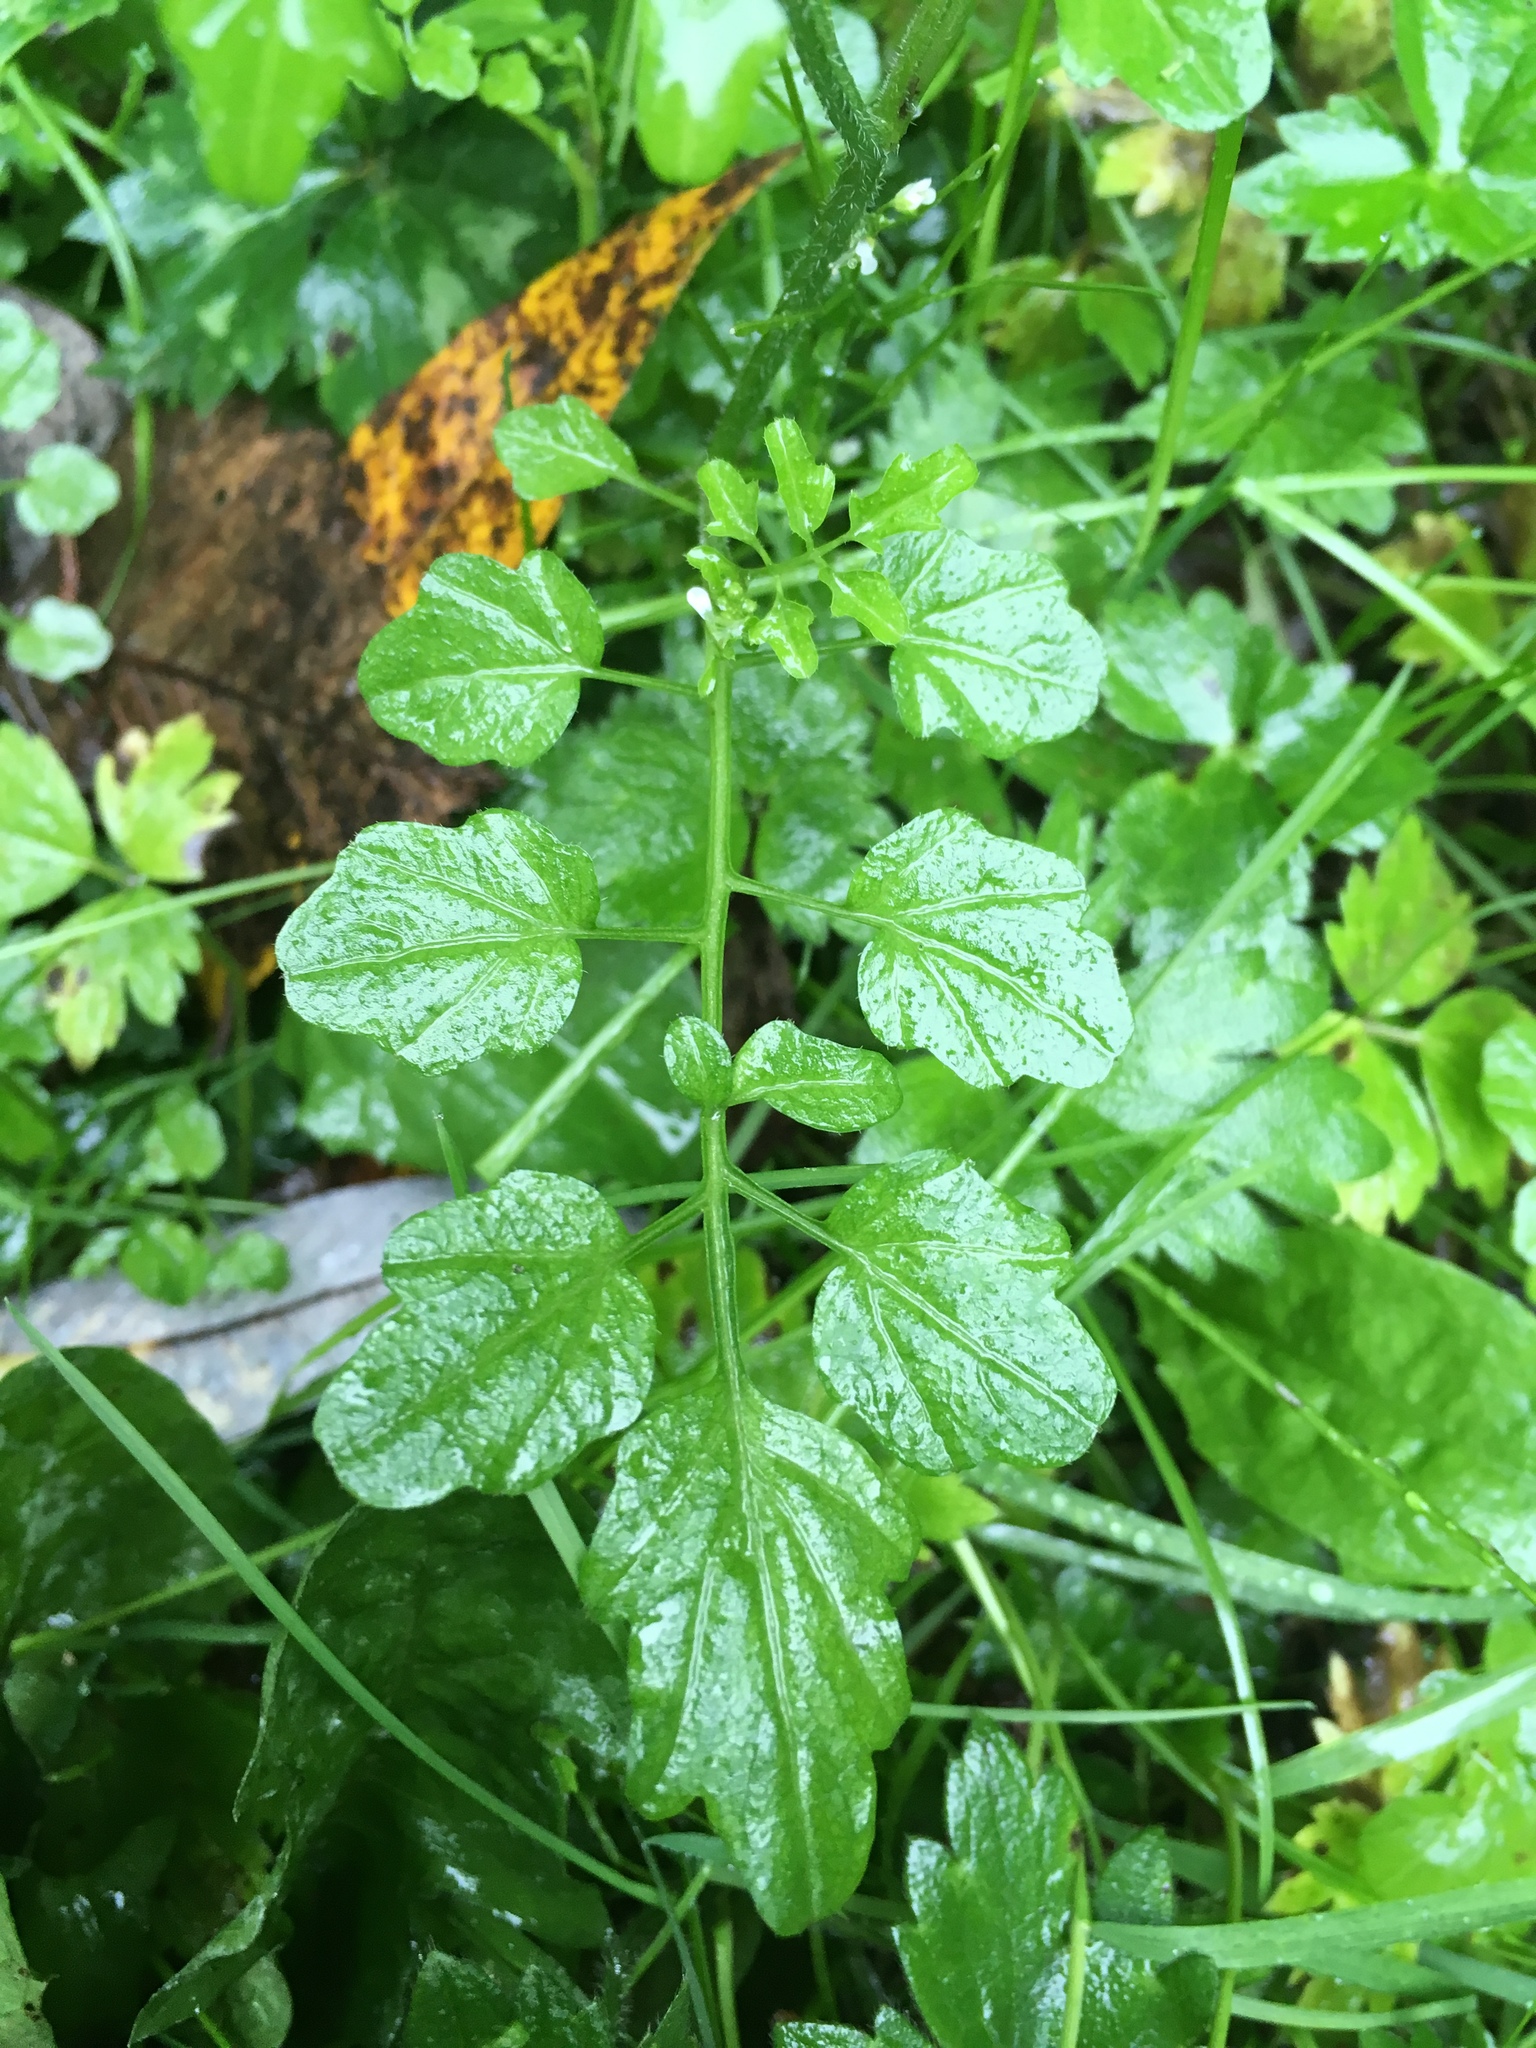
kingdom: Plantae
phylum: Tracheophyta
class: Magnoliopsida
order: Brassicales
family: Brassicaceae
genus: Cardamine
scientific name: Cardamine flexuosa
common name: Woodland bittercress
